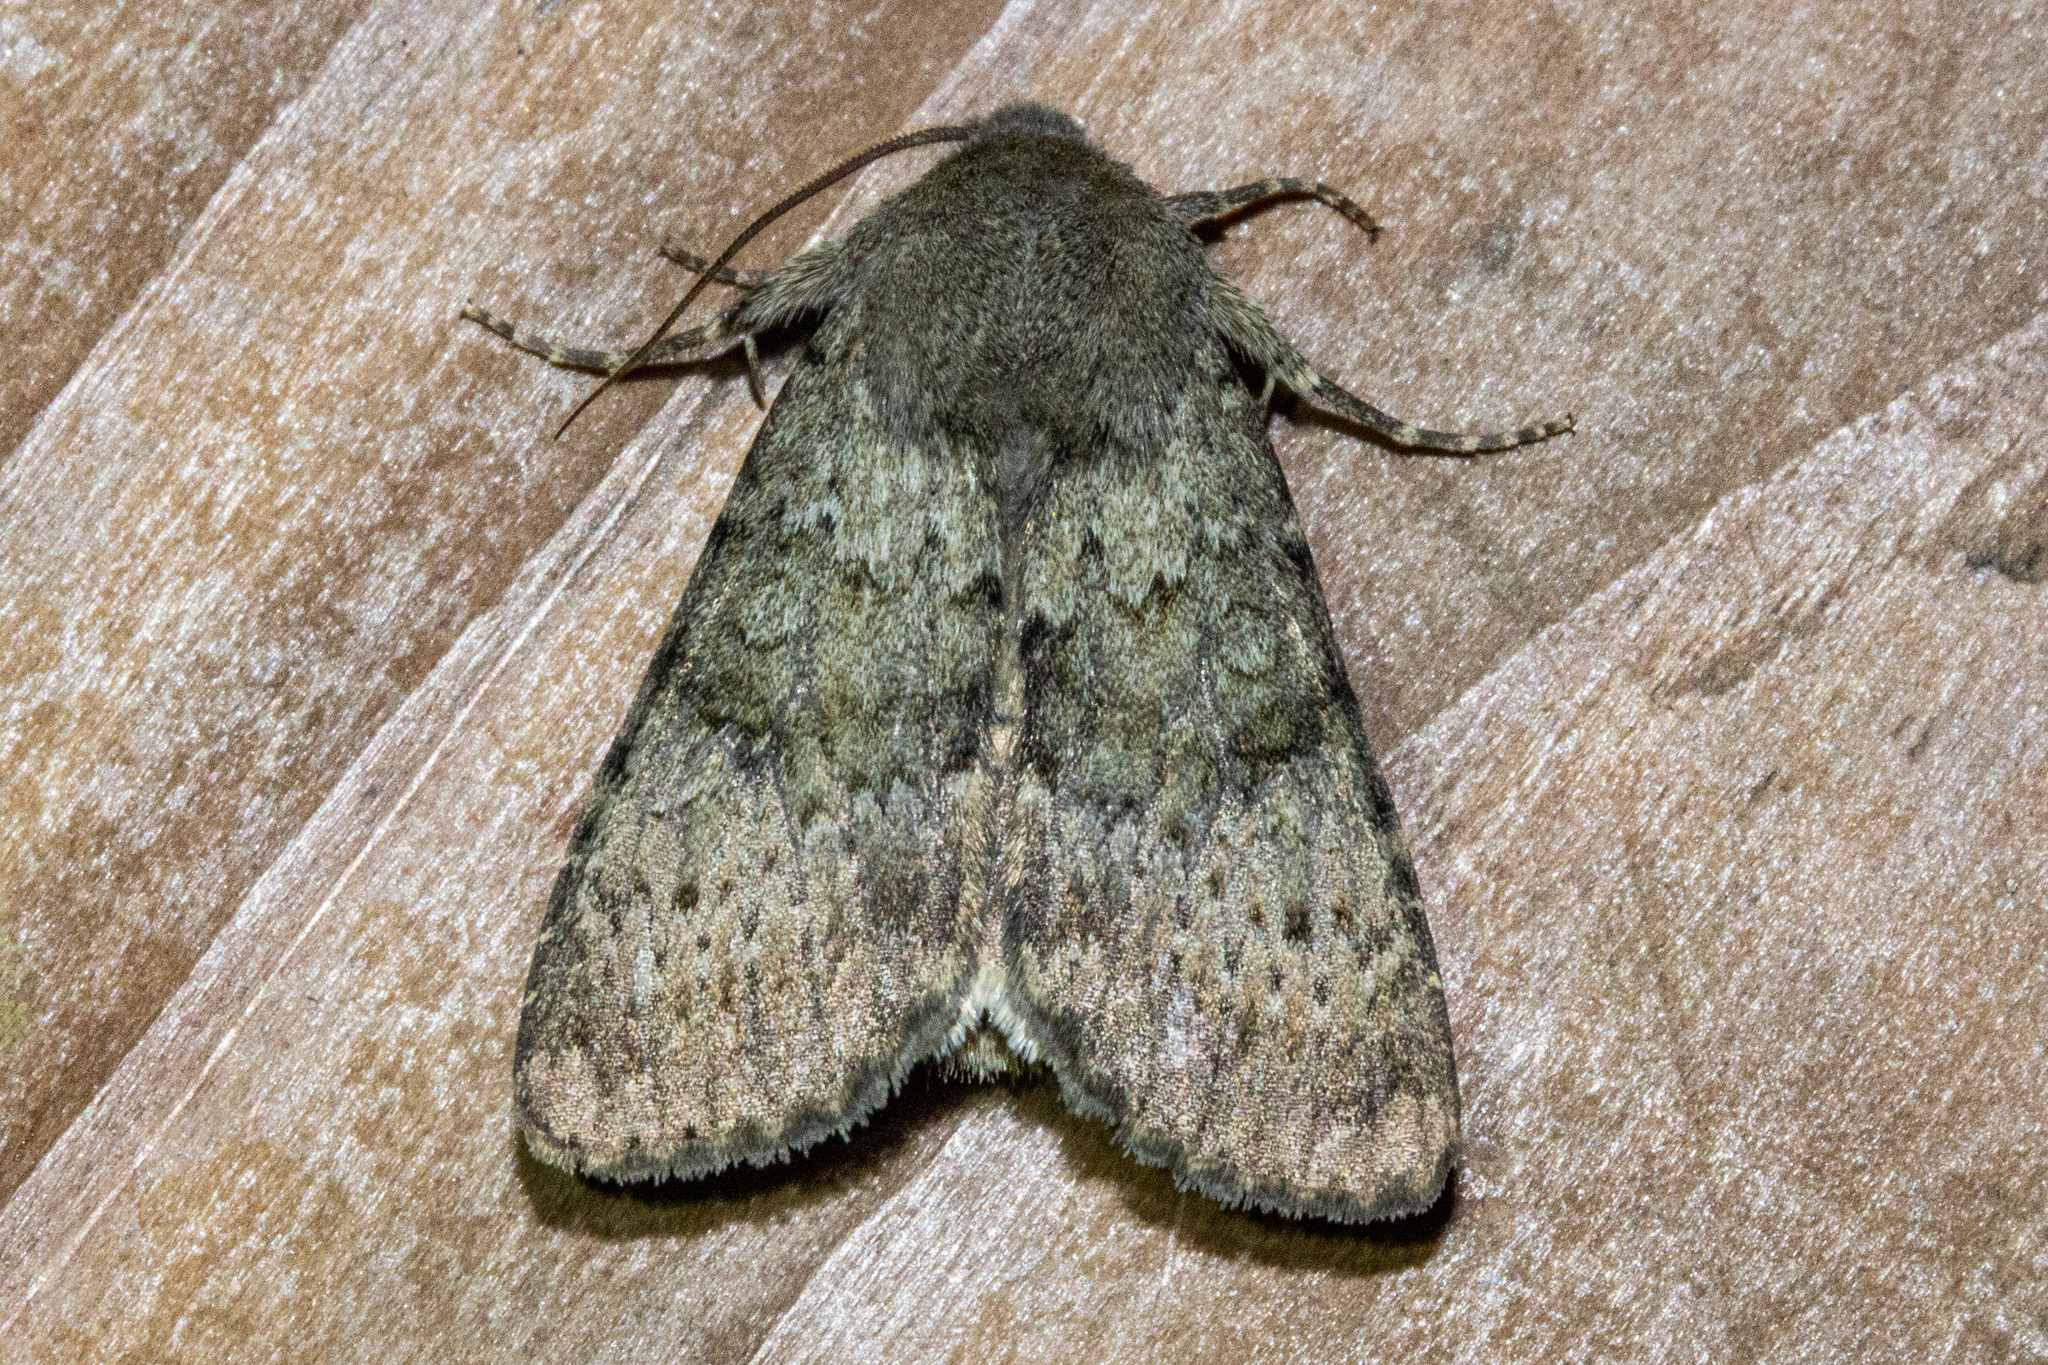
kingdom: Animalia
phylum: Arthropoda
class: Insecta
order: Lepidoptera
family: Noctuidae
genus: Ichneutica
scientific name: Ichneutica moderata
